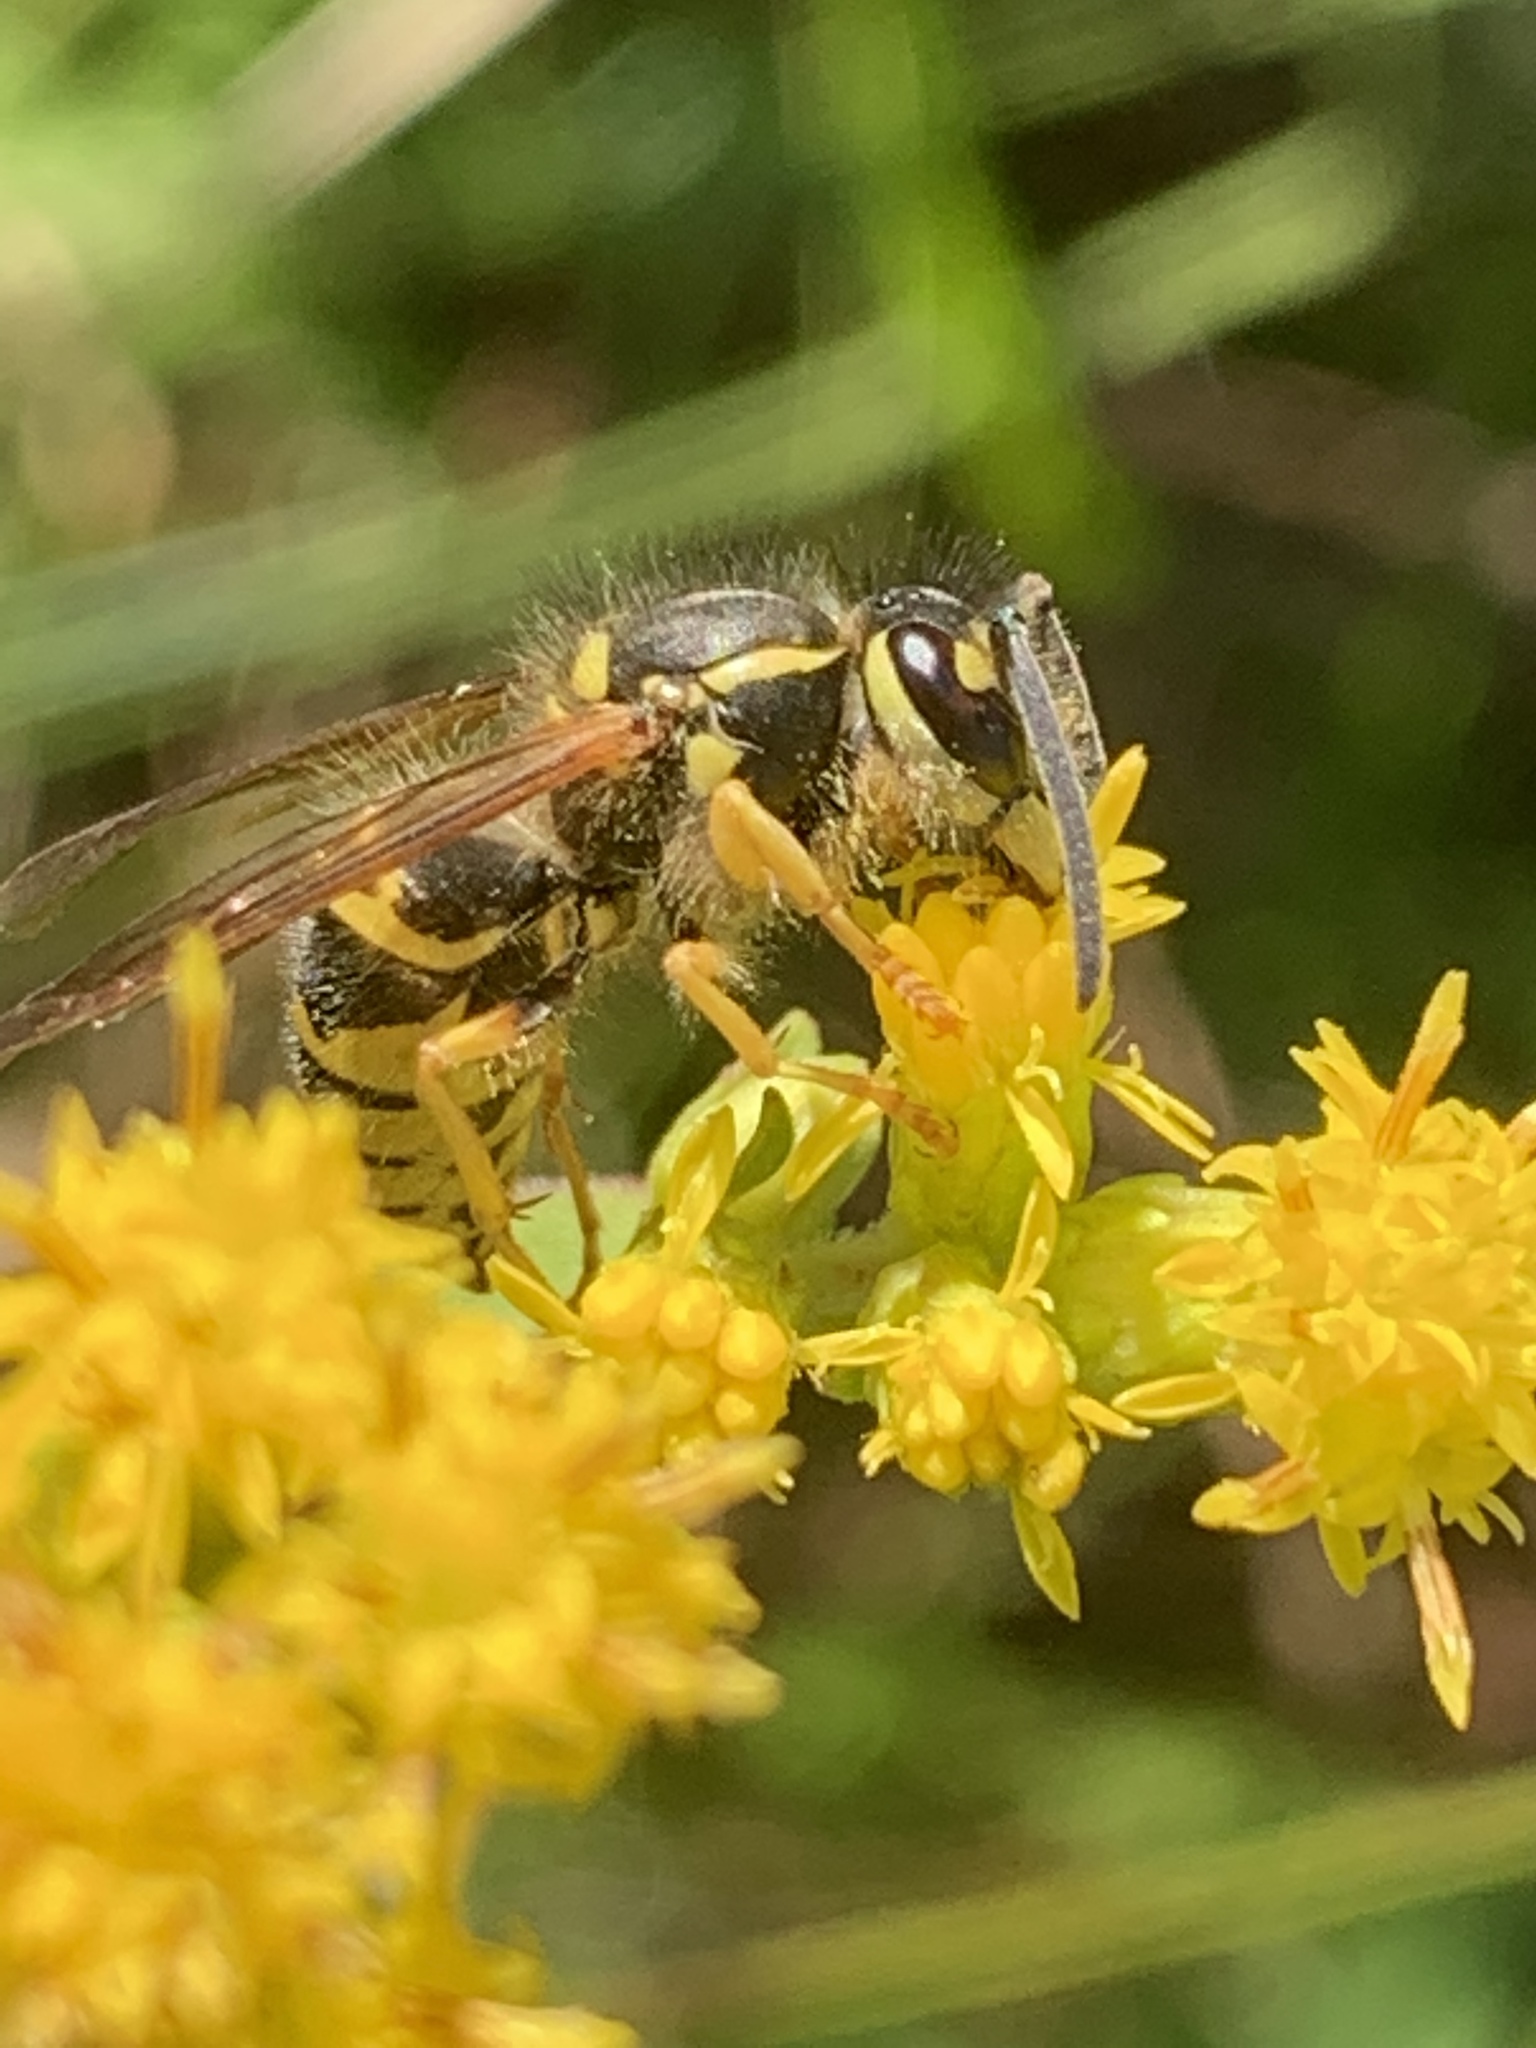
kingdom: Animalia
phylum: Arthropoda
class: Insecta
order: Hymenoptera
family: Vespidae
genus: Vespula
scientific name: Vespula maculifrons
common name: Eastern yellowjacket
